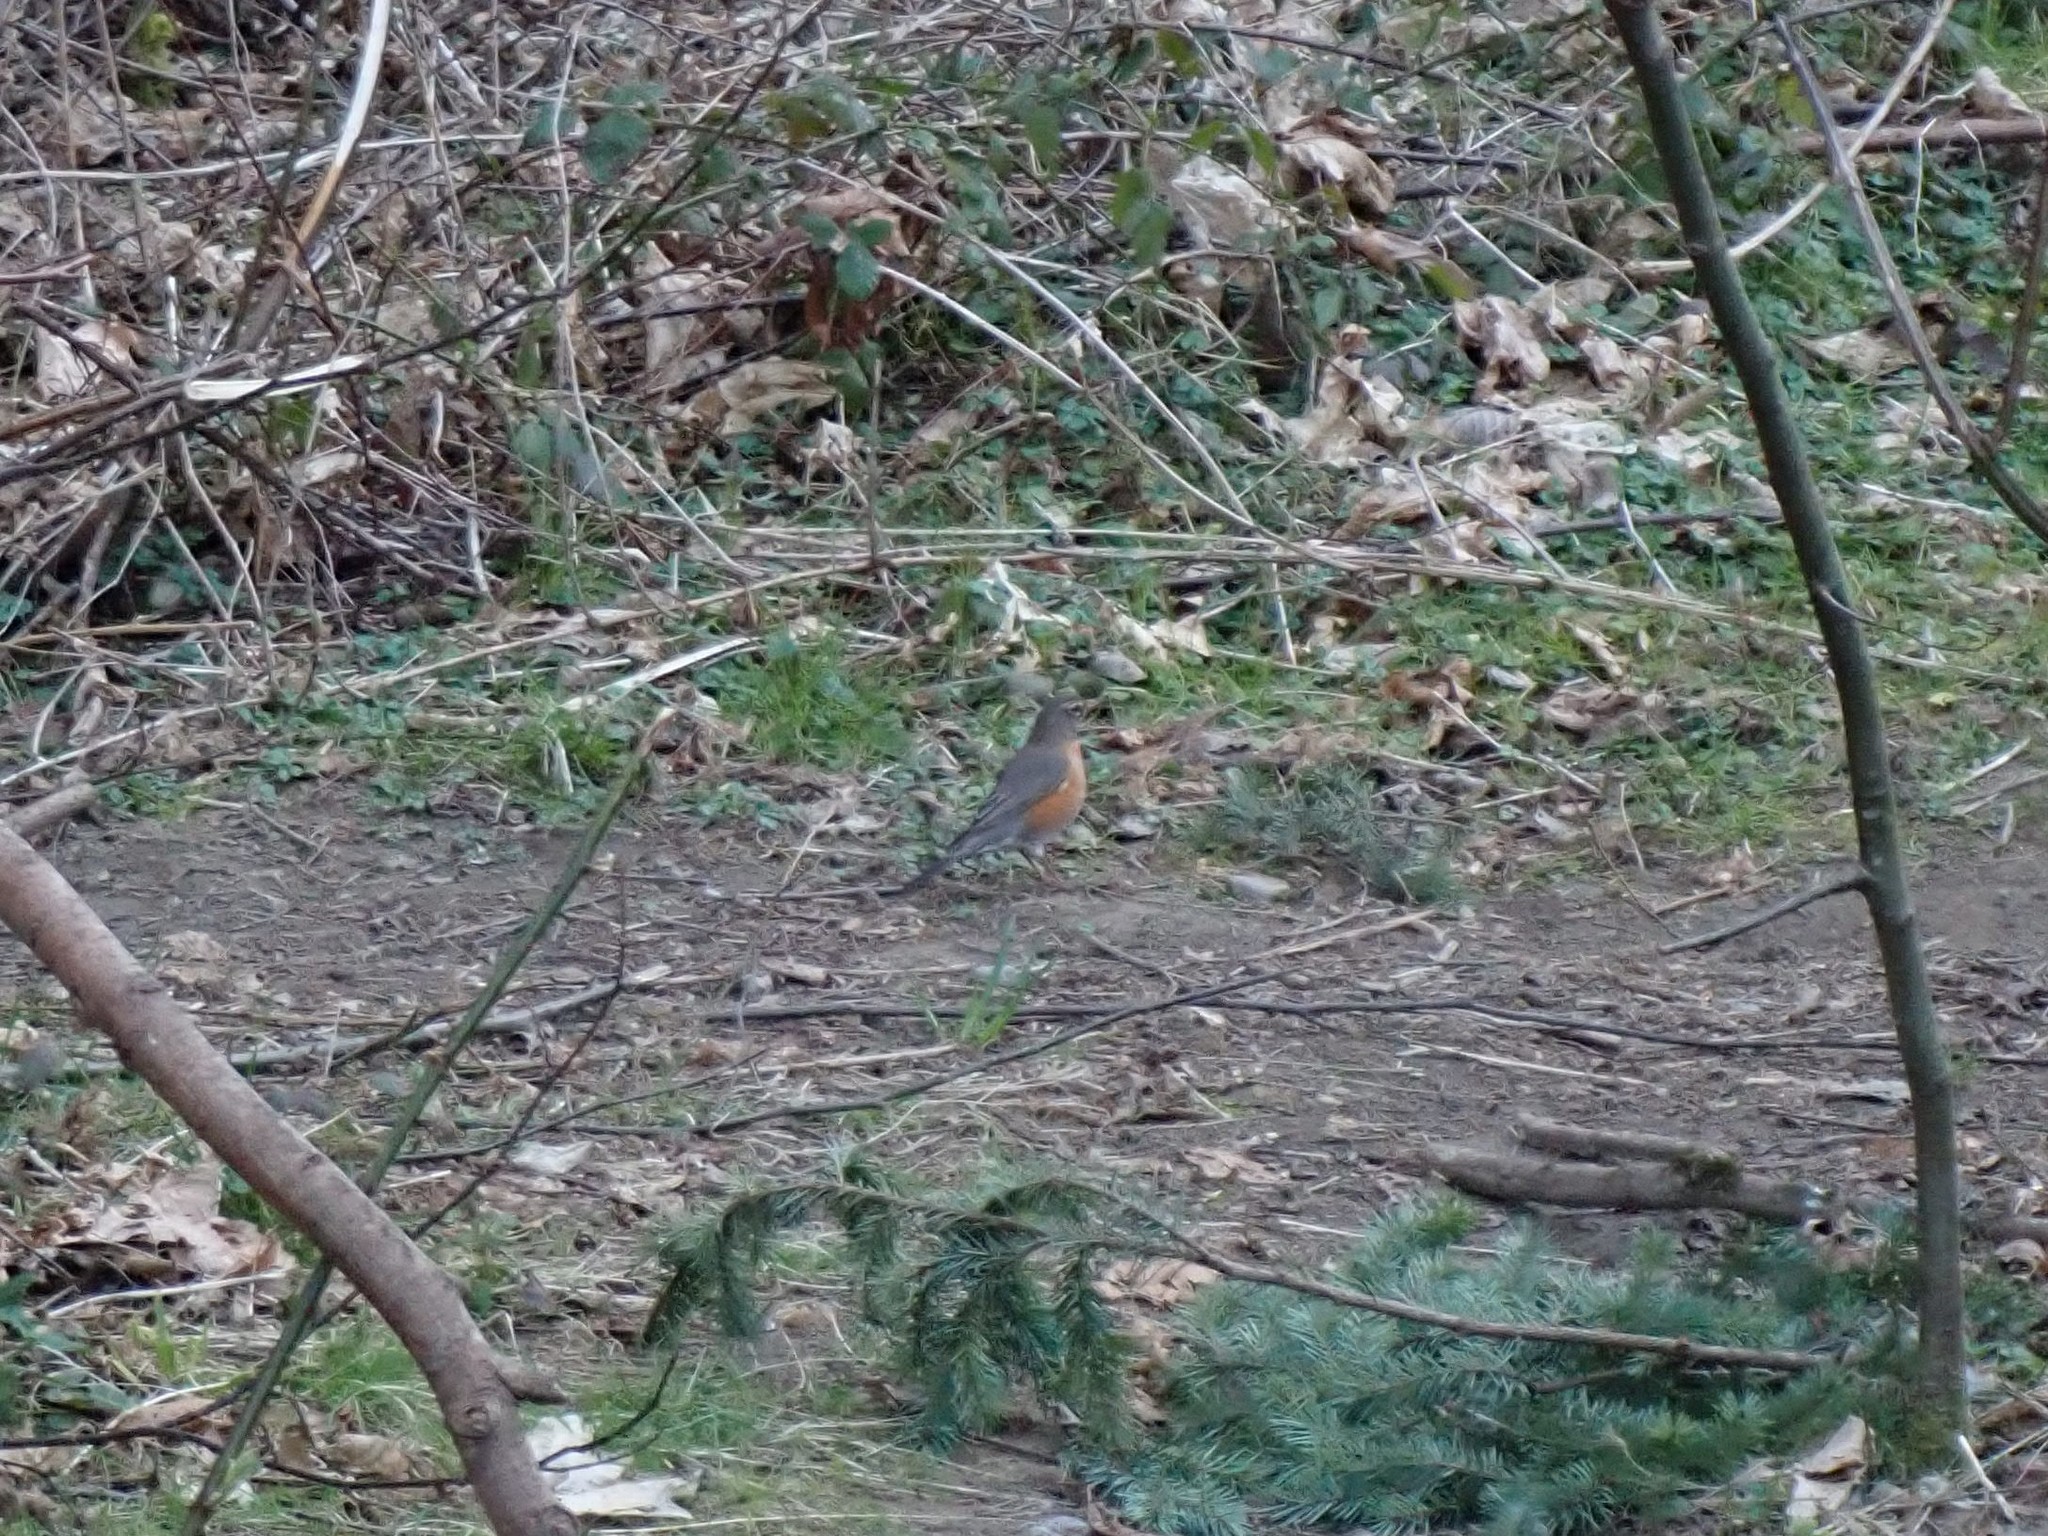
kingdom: Animalia
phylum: Chordata
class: Aves
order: Passeriformes
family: Turdidae
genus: Turdus
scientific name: Turdus migratorius
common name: American robin
